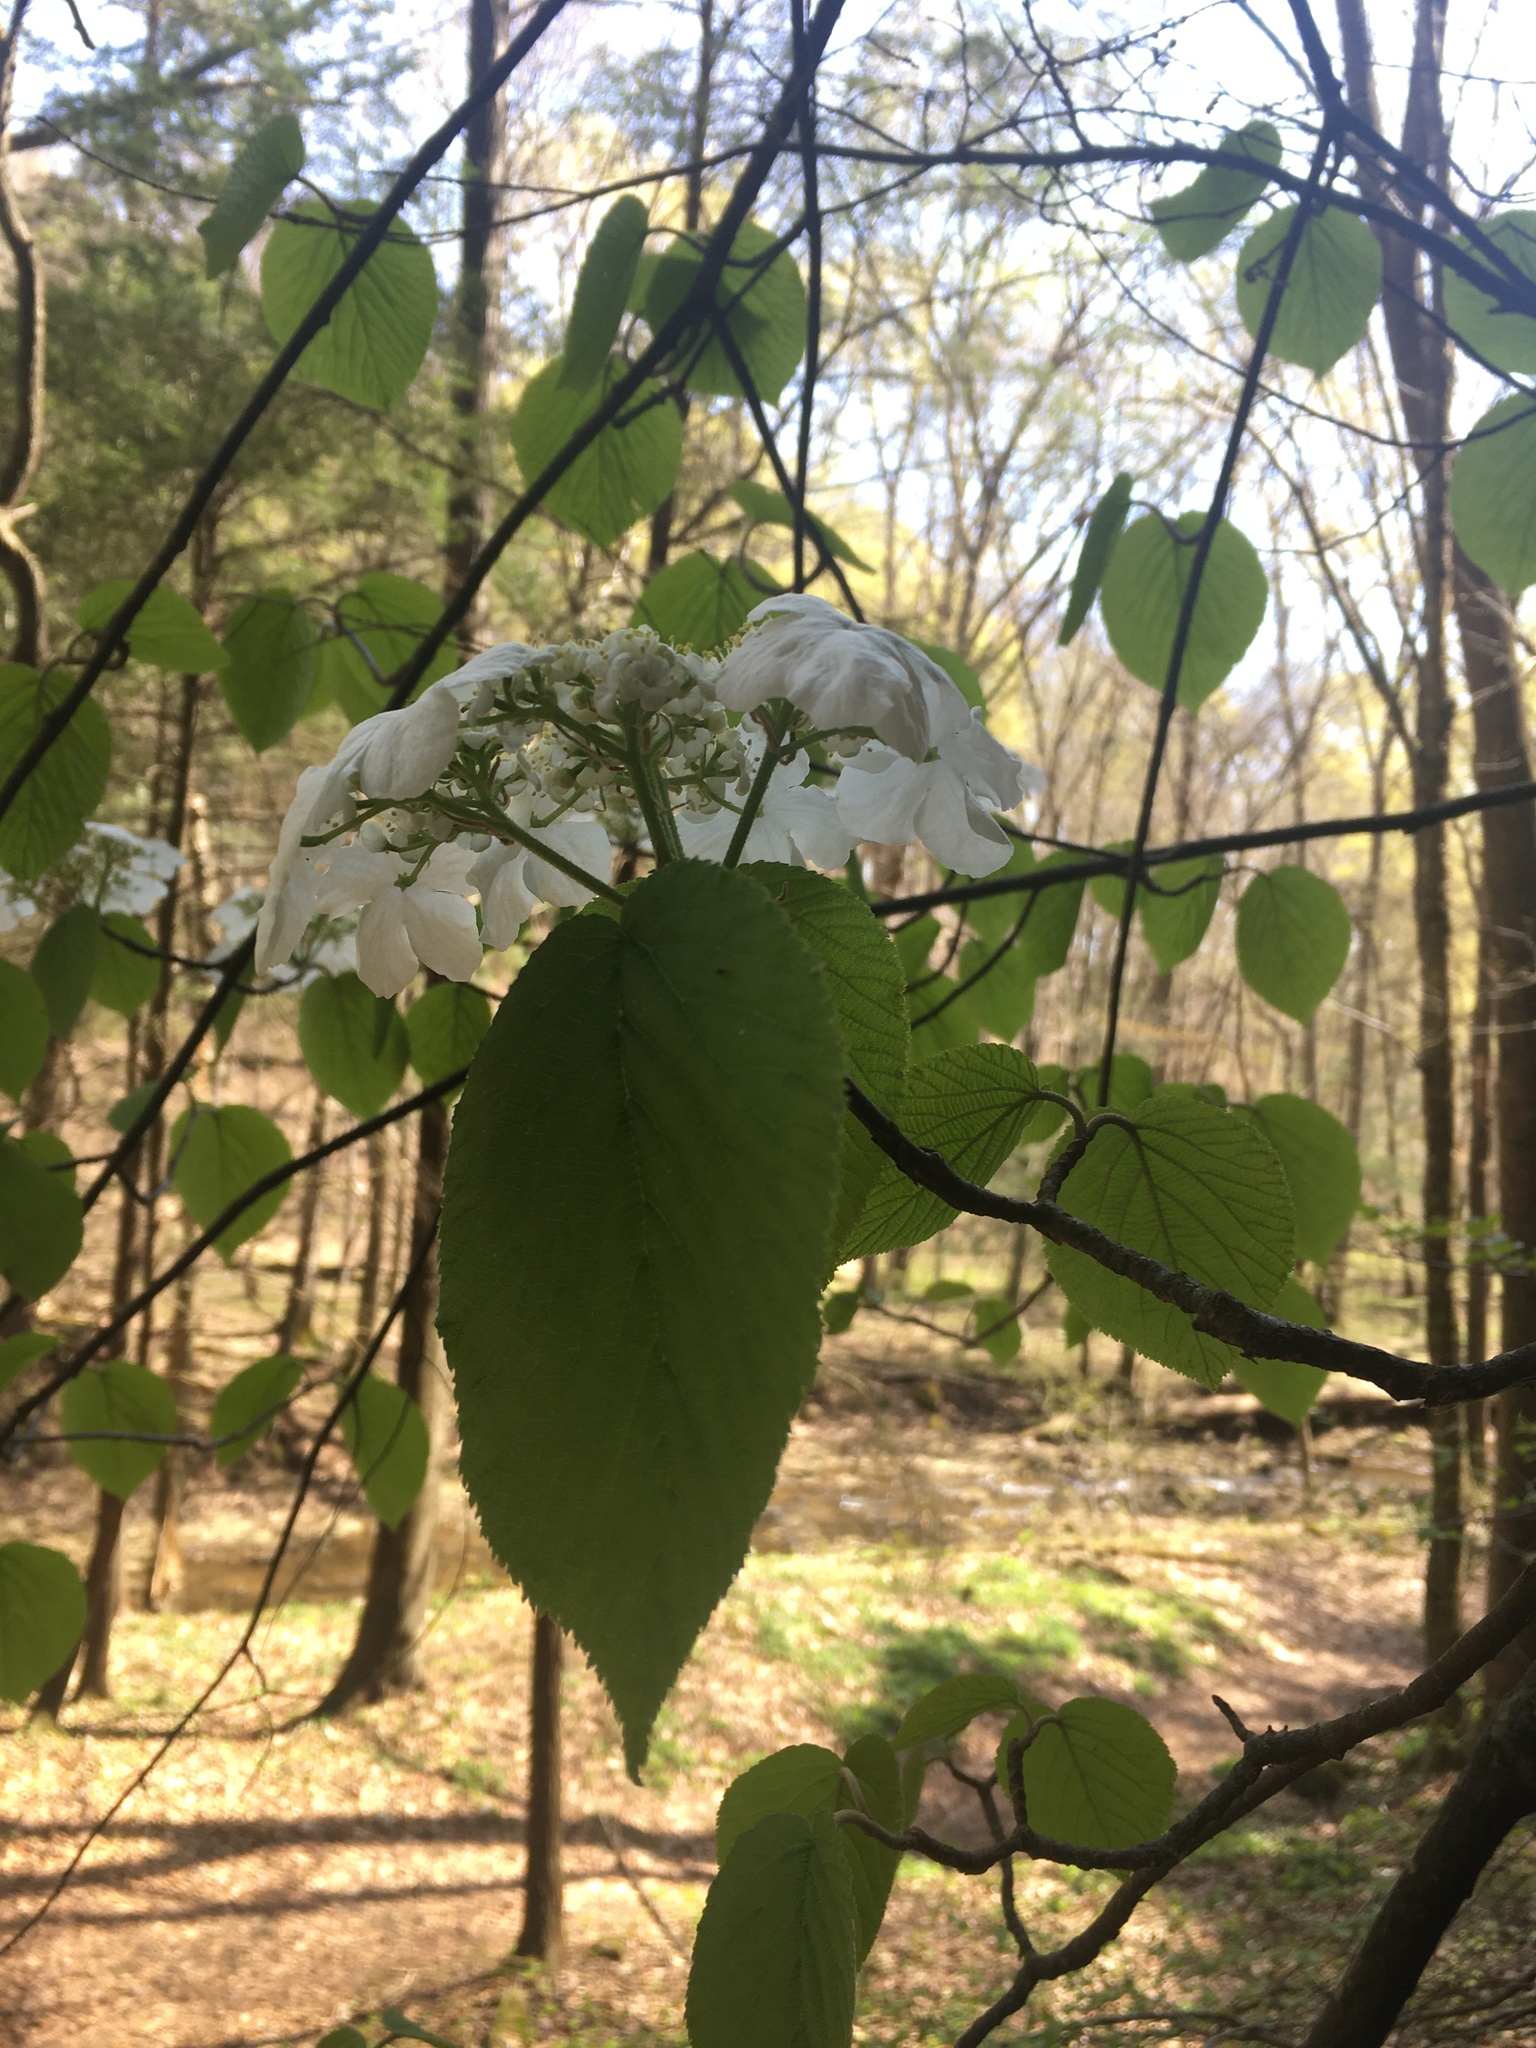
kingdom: Plantae
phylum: Tracheophyta
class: Magnoliopsida
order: Dipsacales
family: Viburnaceae
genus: Viburnum
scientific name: Viburnum lantanoides
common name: Hobblebush
